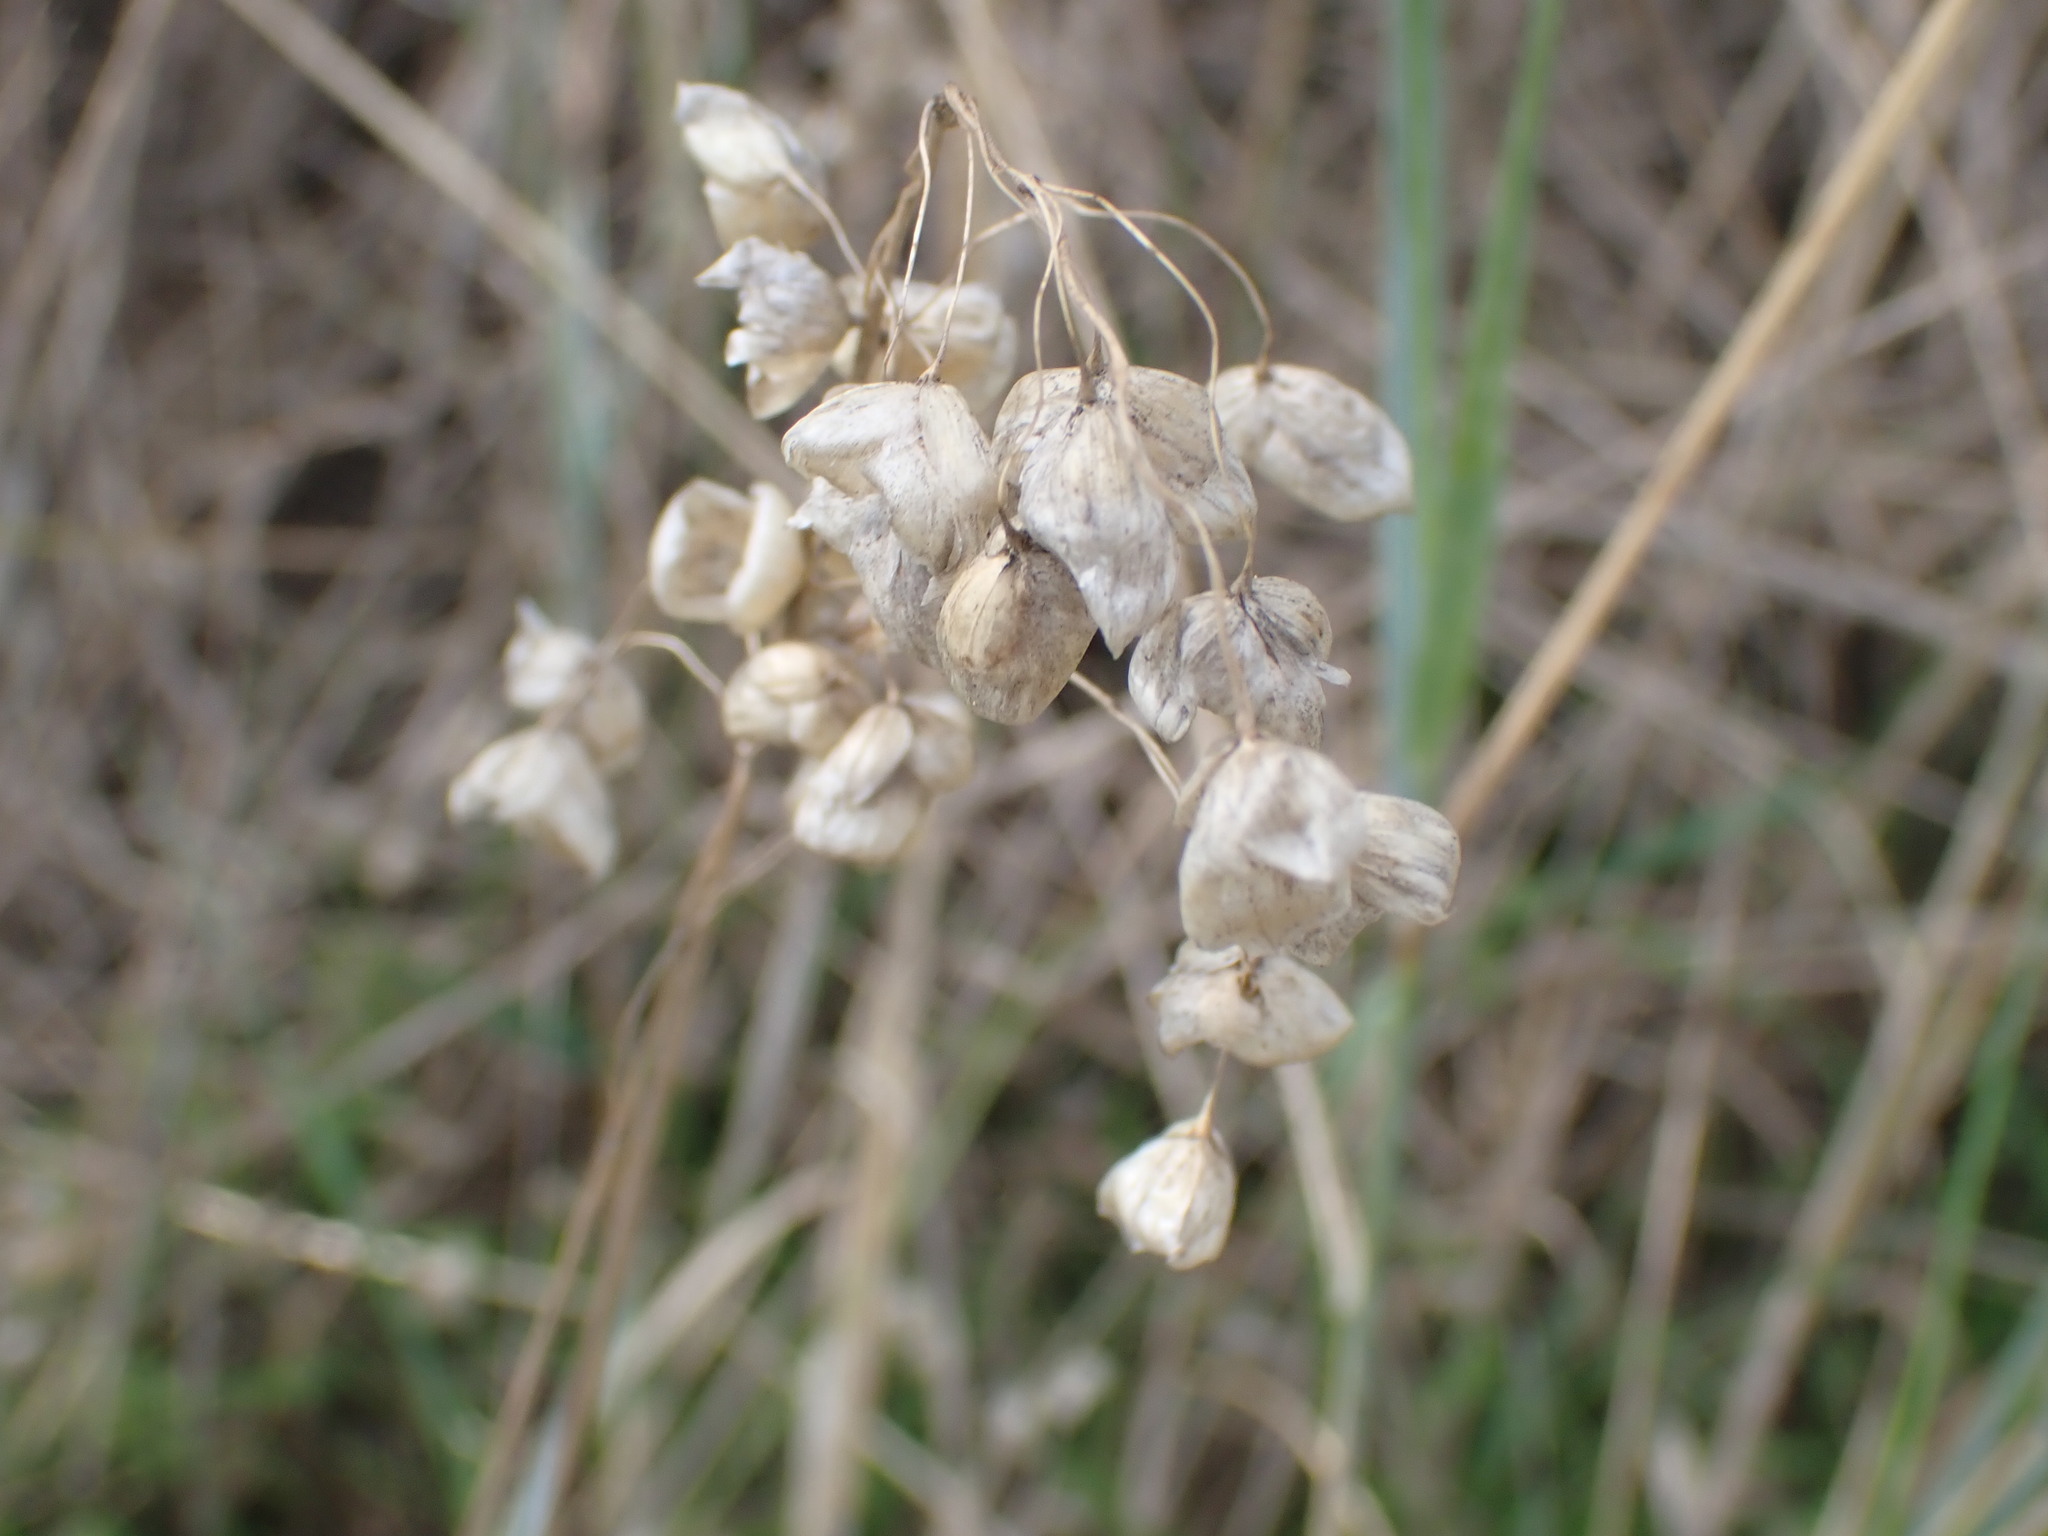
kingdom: Plantae
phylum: Tracheophyta
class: Liliopsida
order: Poales
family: Poaceae
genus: Briza
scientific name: Briza maxima
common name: Big quakinggrass
